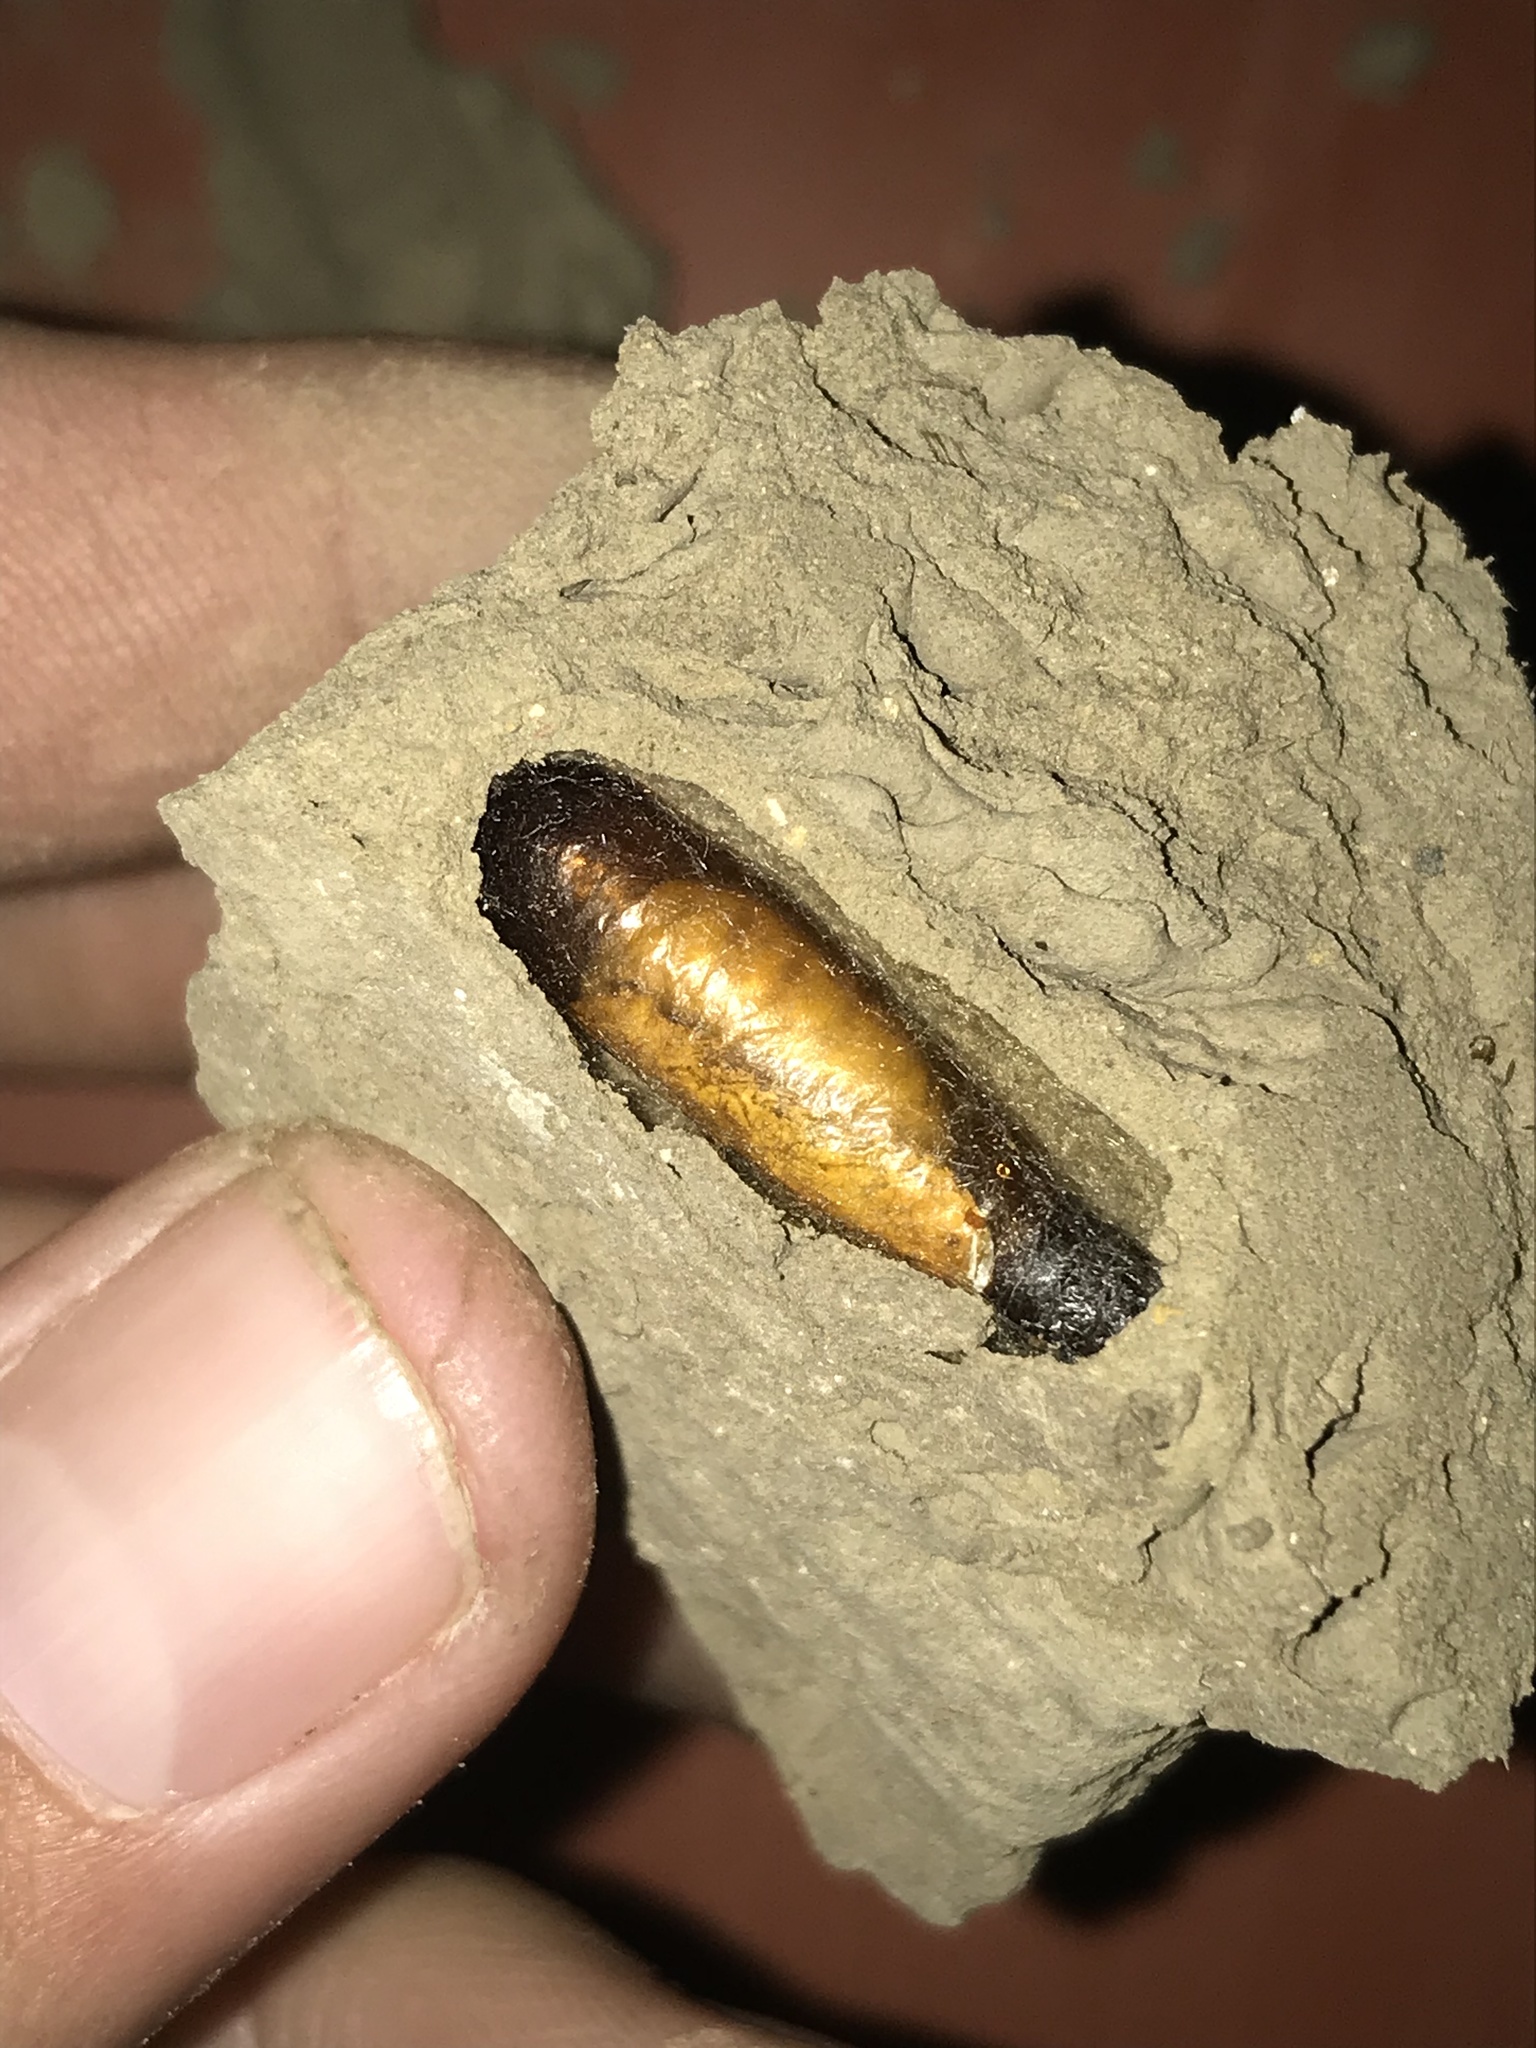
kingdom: Animalia
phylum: Arthropoda
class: Insecta
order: Hymenoptera
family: Sphecidae
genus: Sceliphron
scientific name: Sceliphron caementarium
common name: Mud dauber
